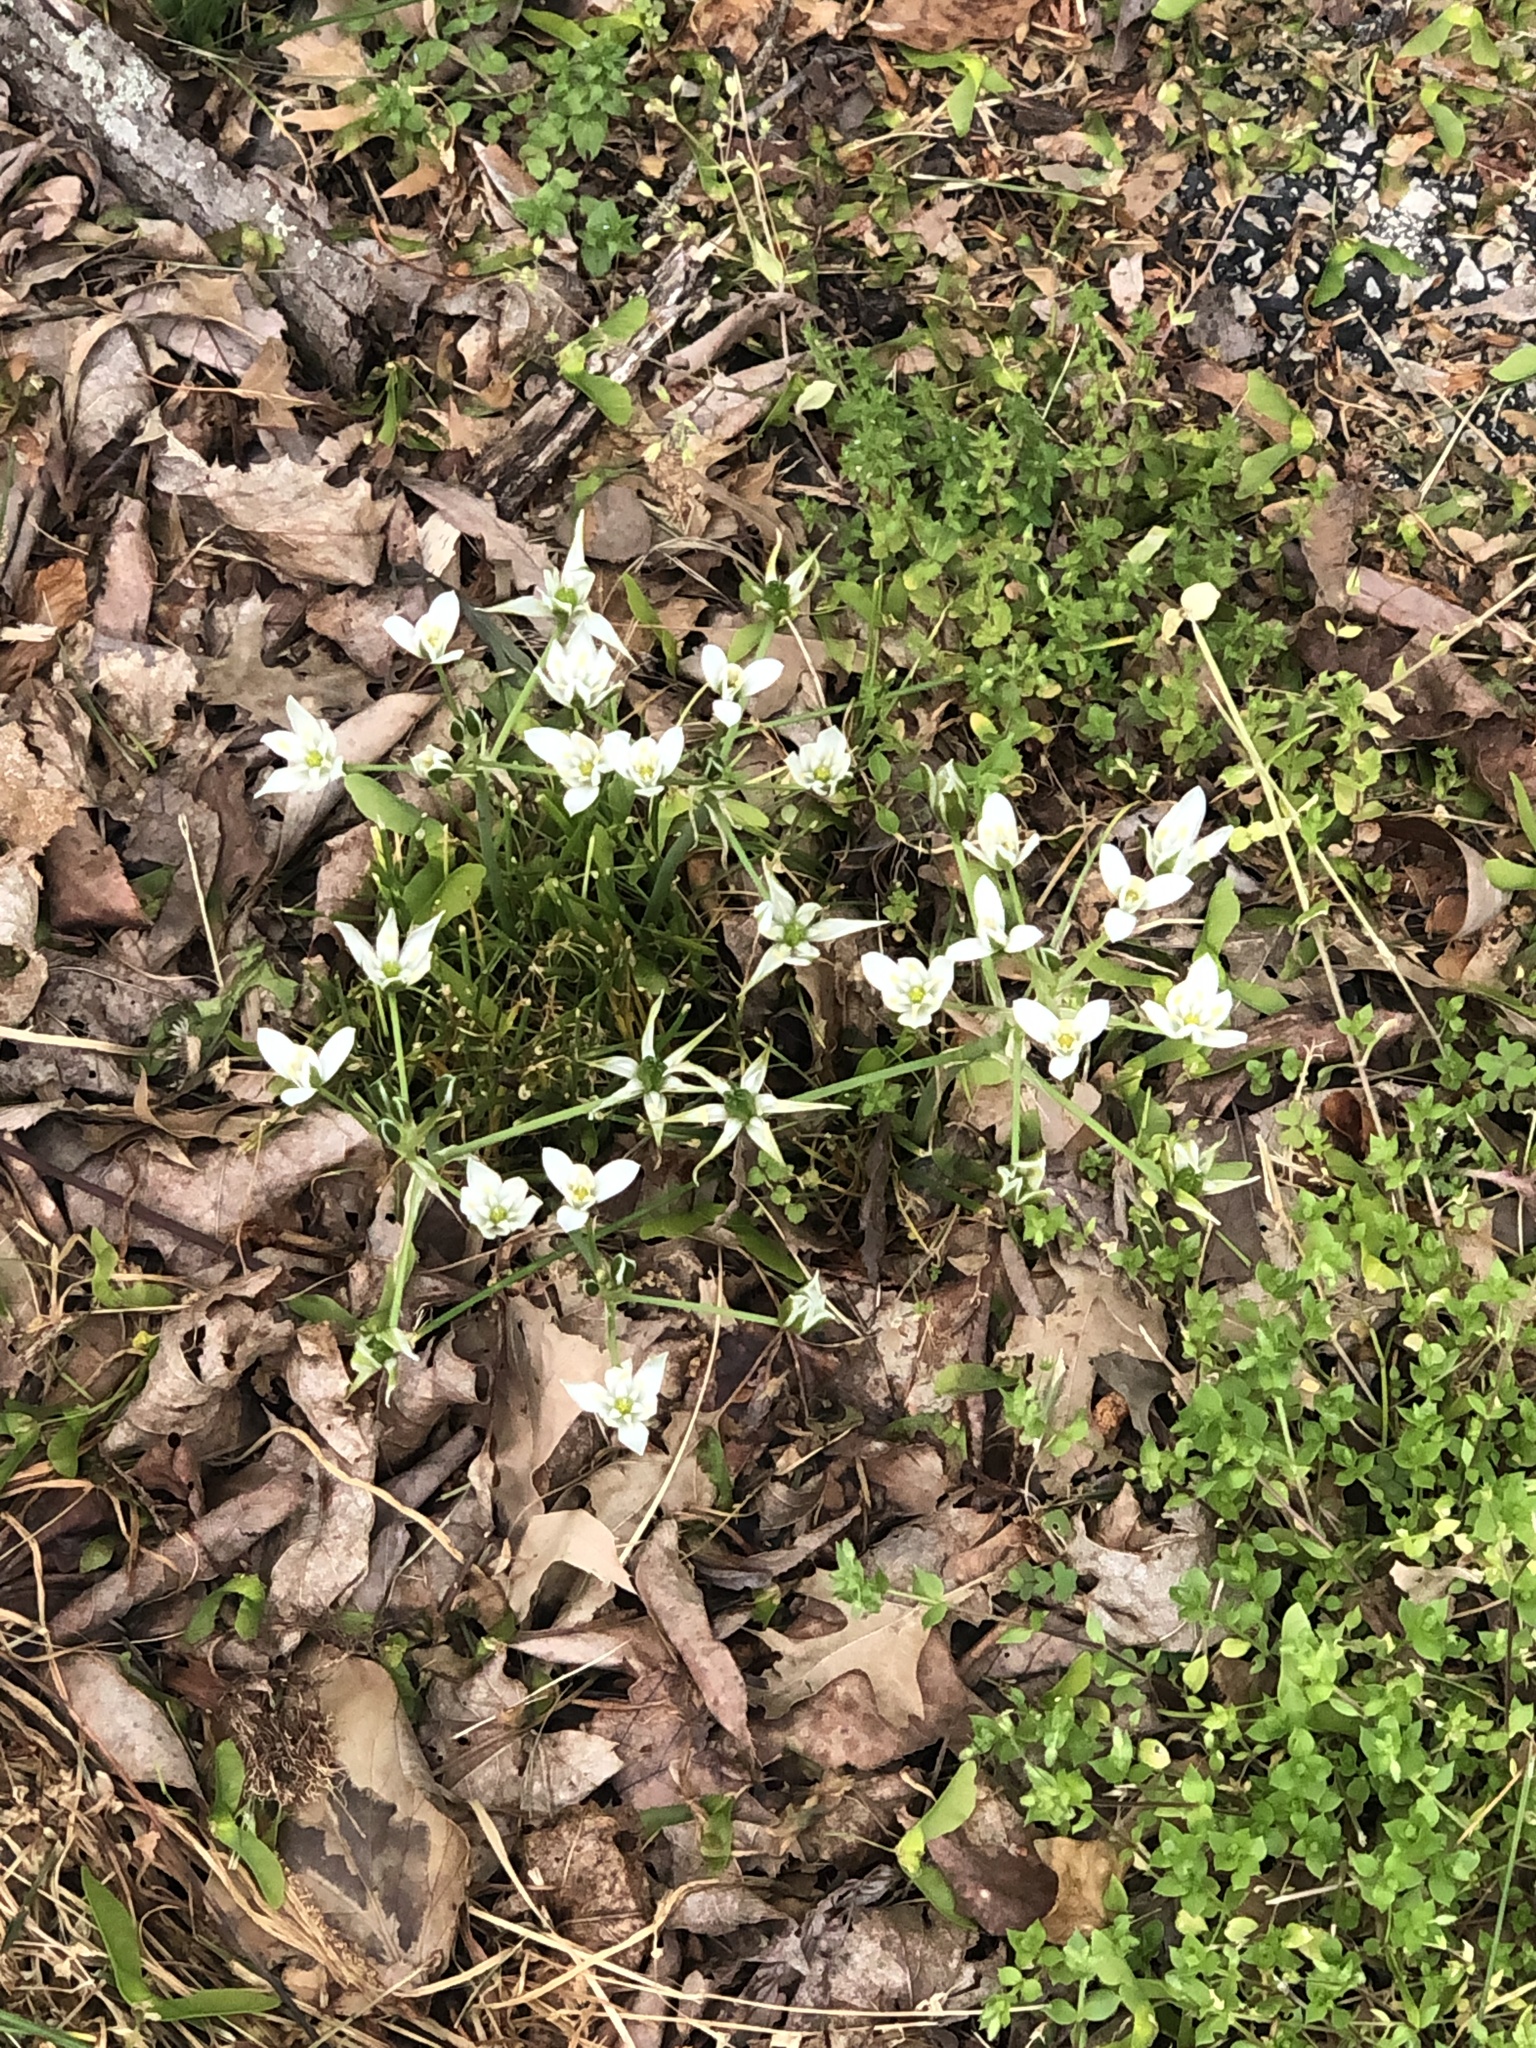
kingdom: Plantae
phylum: Tracheophyta
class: Liliopsida
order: Asparagales
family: Asparagaceae
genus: Ornithogalum
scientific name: Ornithogalum umbellatum
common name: Garden star-of-bethlehem
